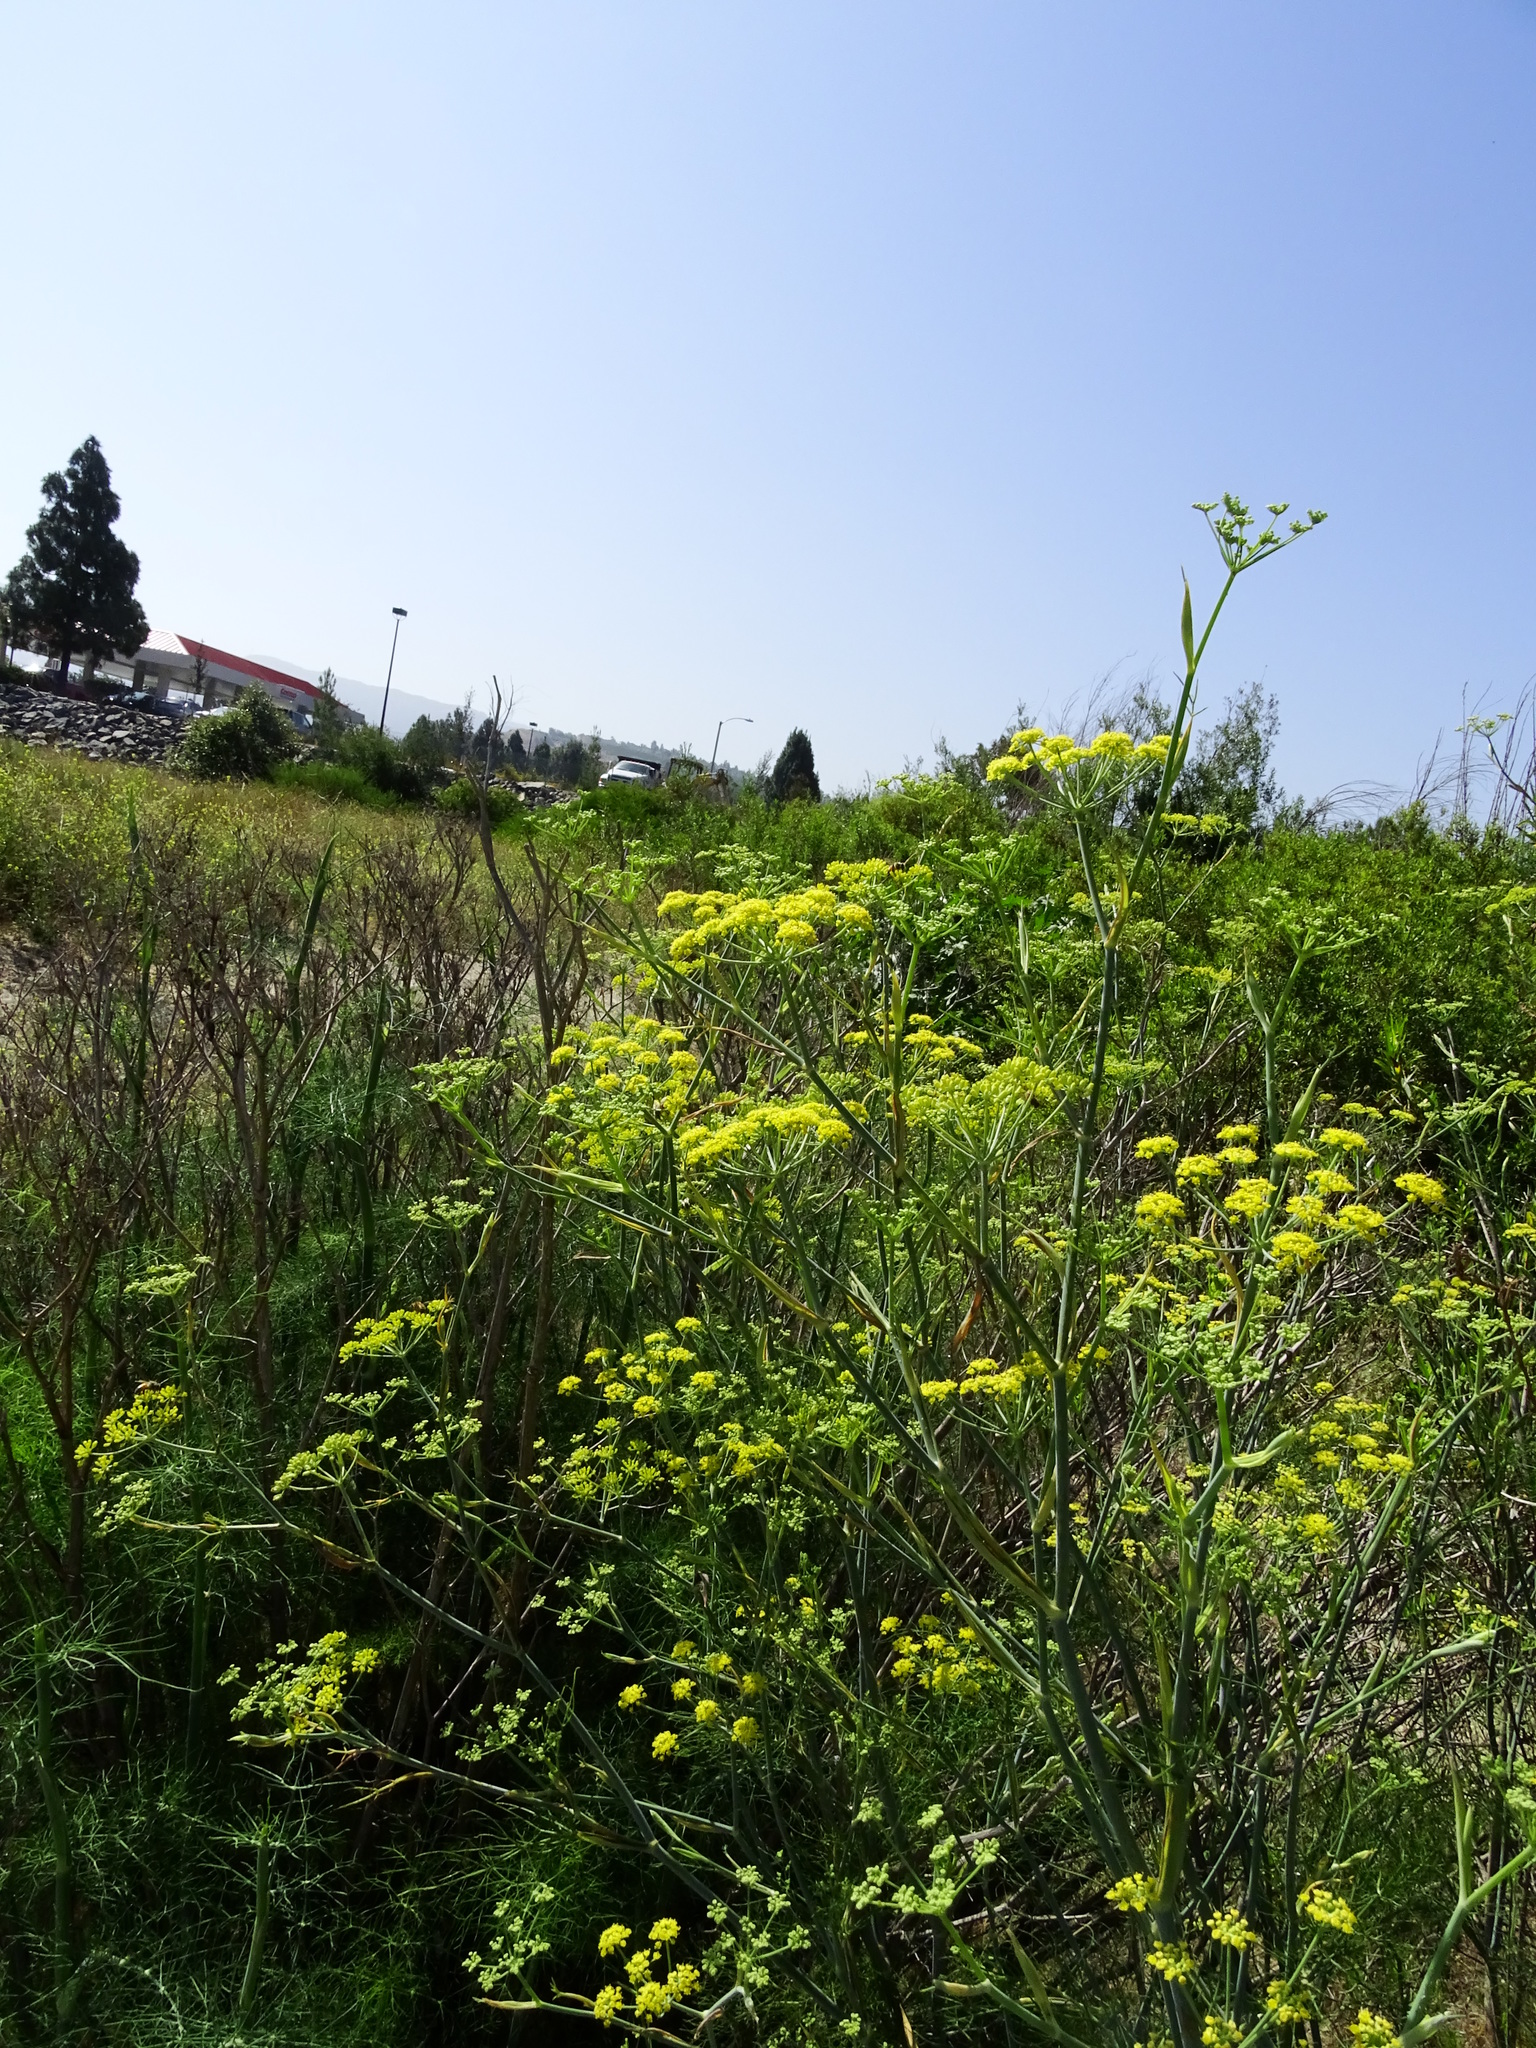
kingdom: Plantae
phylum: Tracheophyta
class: Magnoliopsida
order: Apiales
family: Apiaceae
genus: Foeniculum
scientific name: Foeniculum vulgare
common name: Fennel
